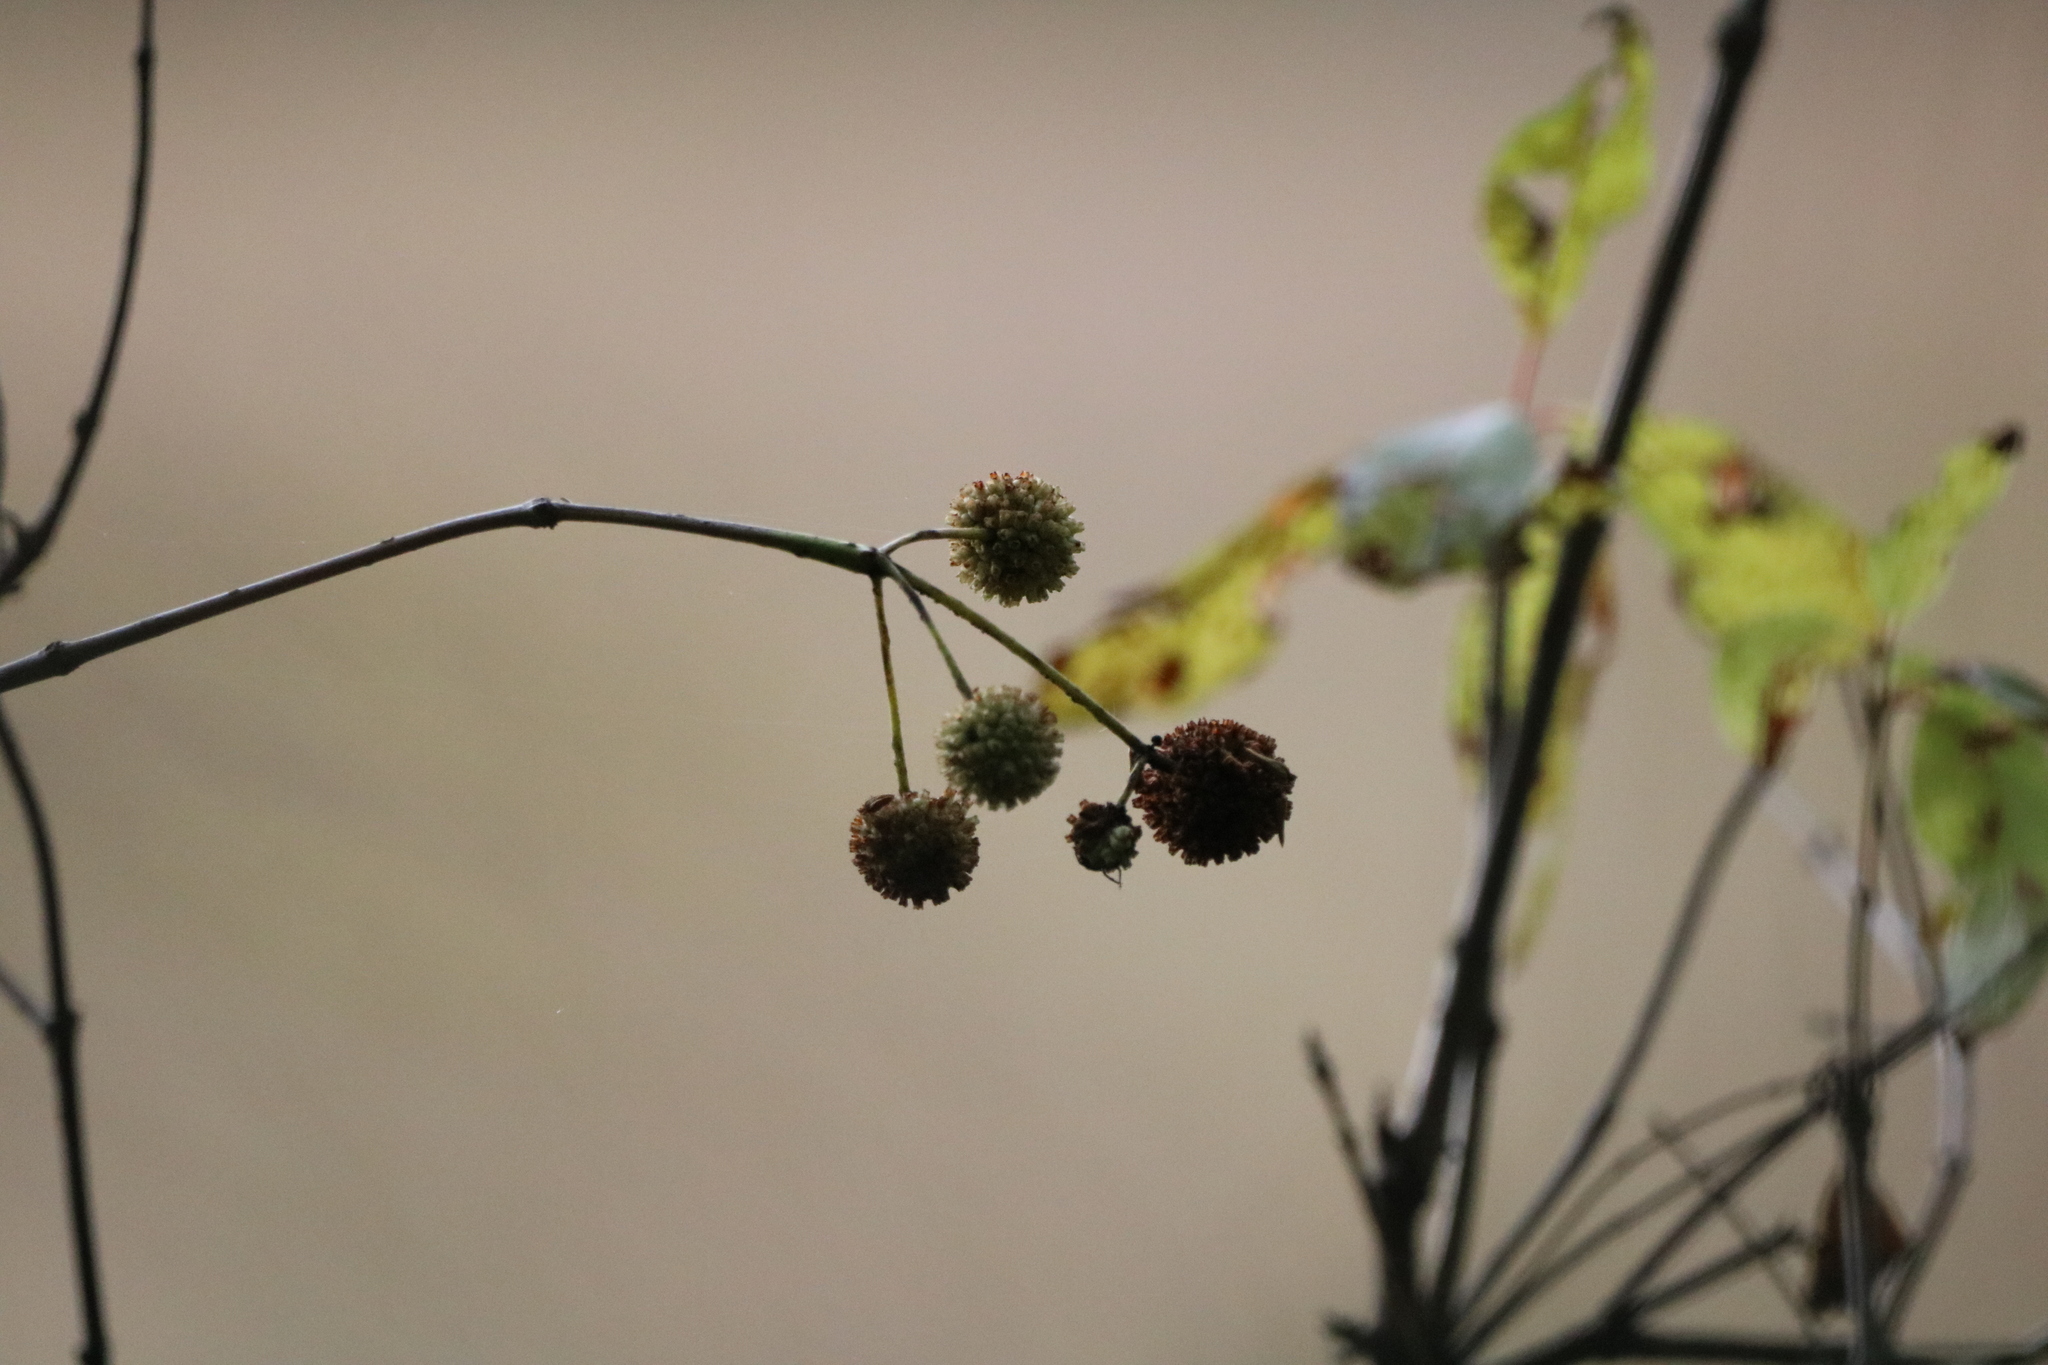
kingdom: Plantae
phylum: Tracheophyta
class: Magnoliopsida
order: Gentianales
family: Rubiaceae
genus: Cephalanthus
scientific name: Cephalanthus occidentalis
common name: Button-willow
